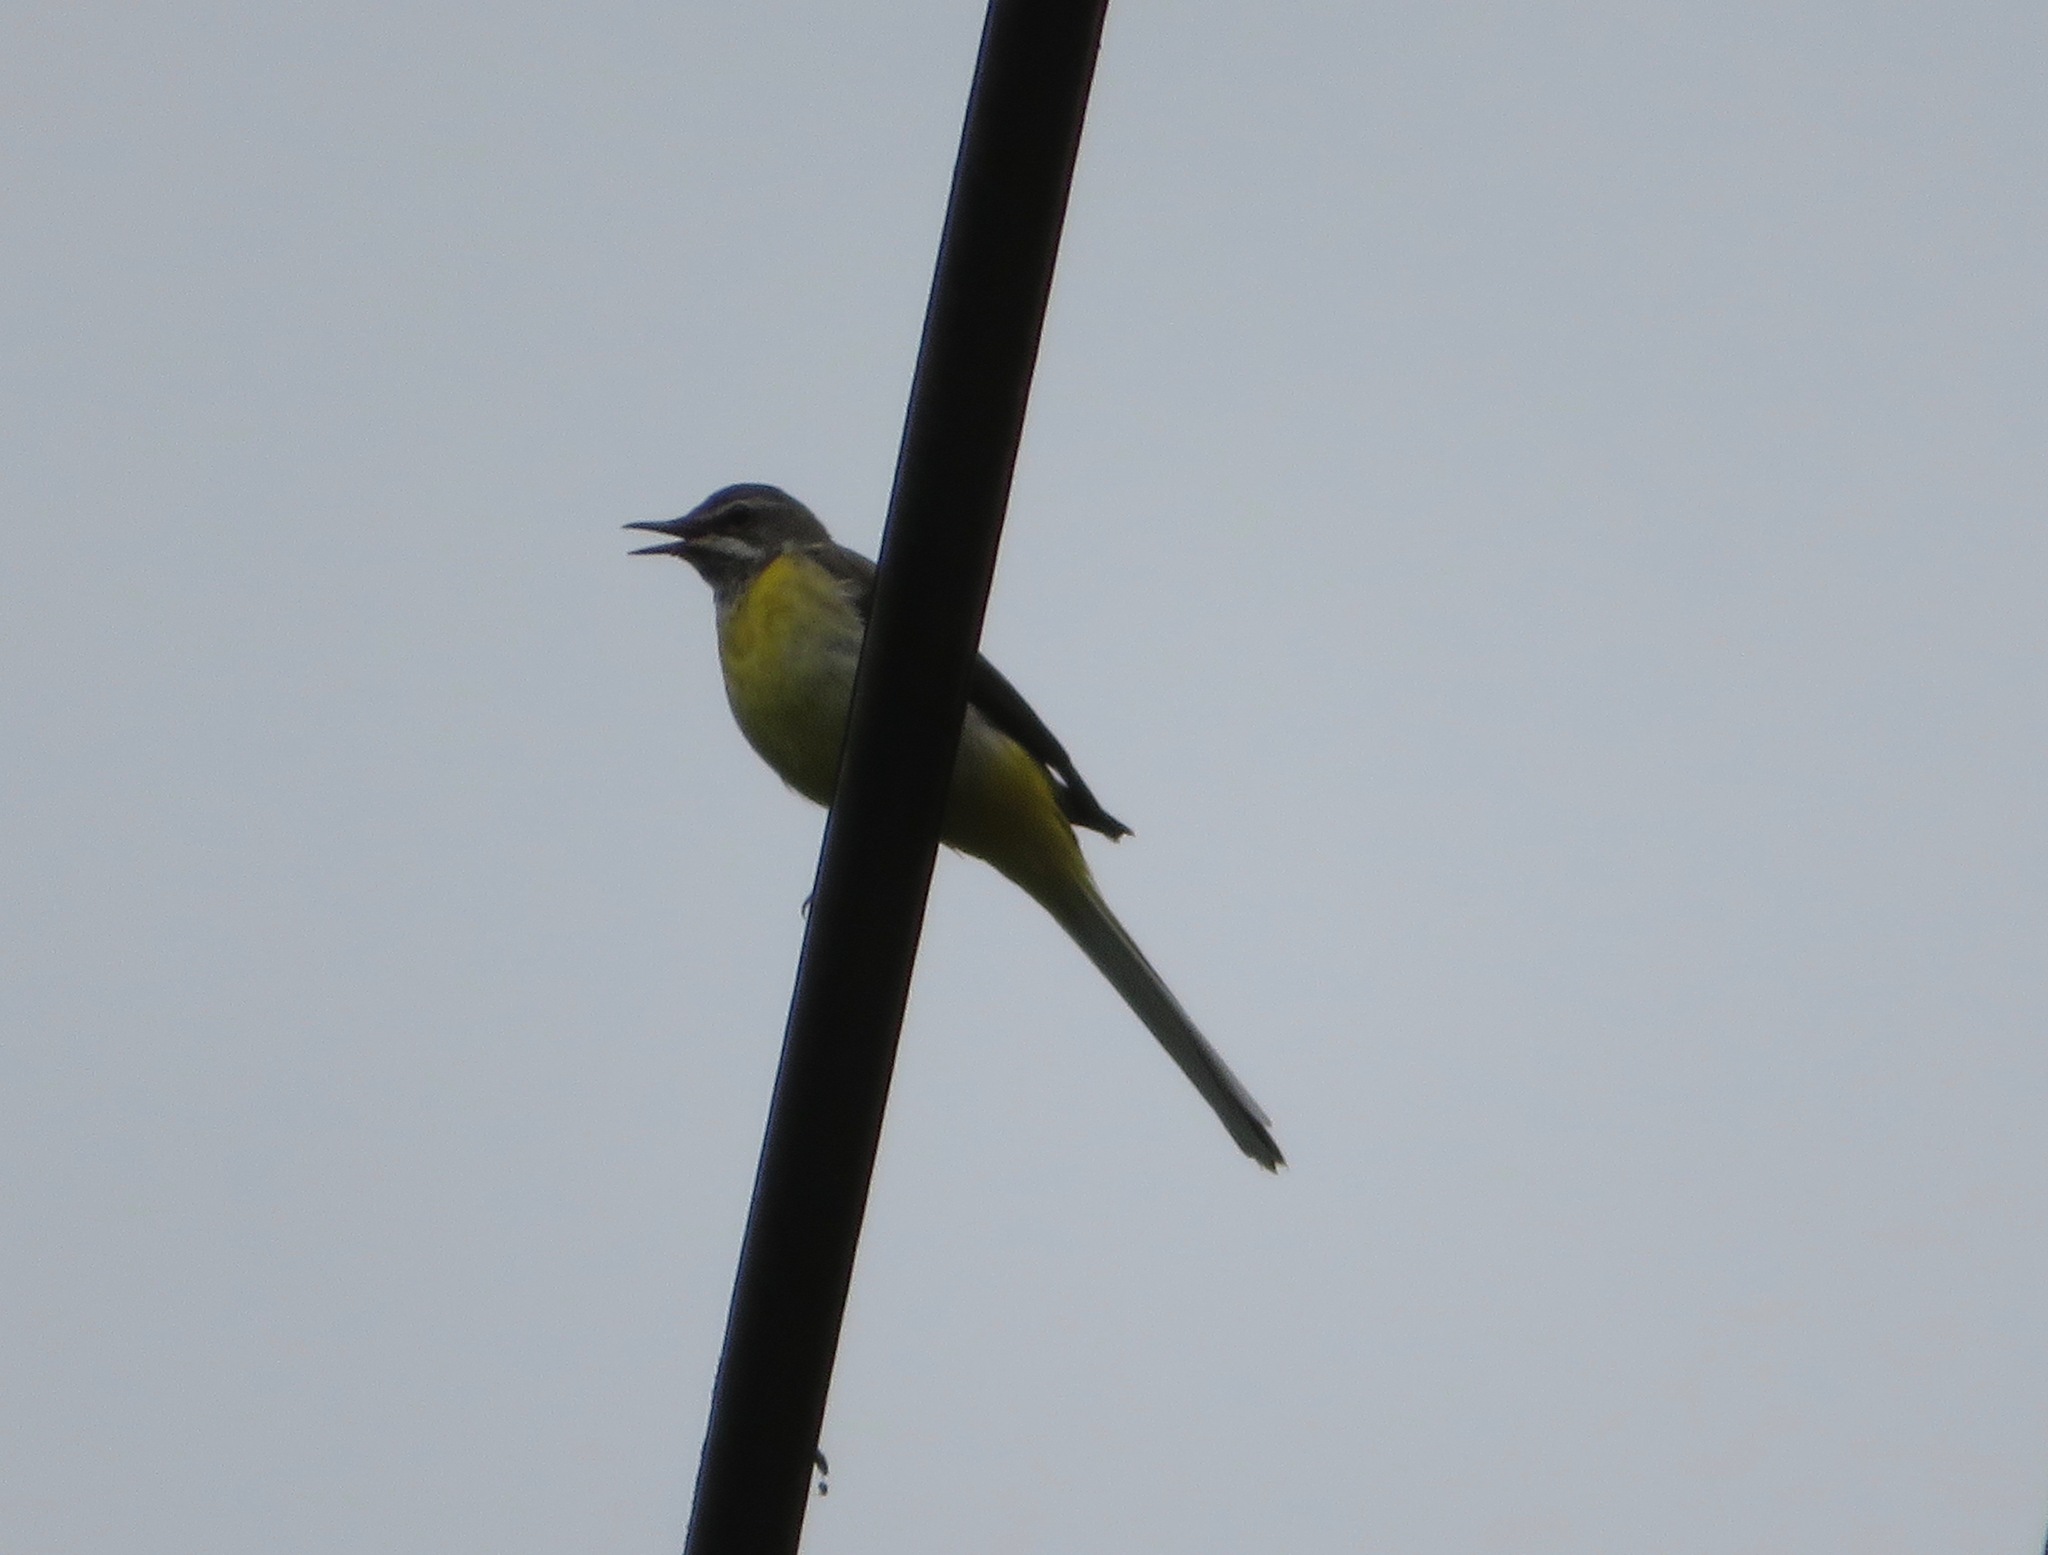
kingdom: Animalia
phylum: Chordata
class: Aves
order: Passeriformes
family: Motacillidae
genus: Motacilla
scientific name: Motacilla cinerea
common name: Grey wagtail
